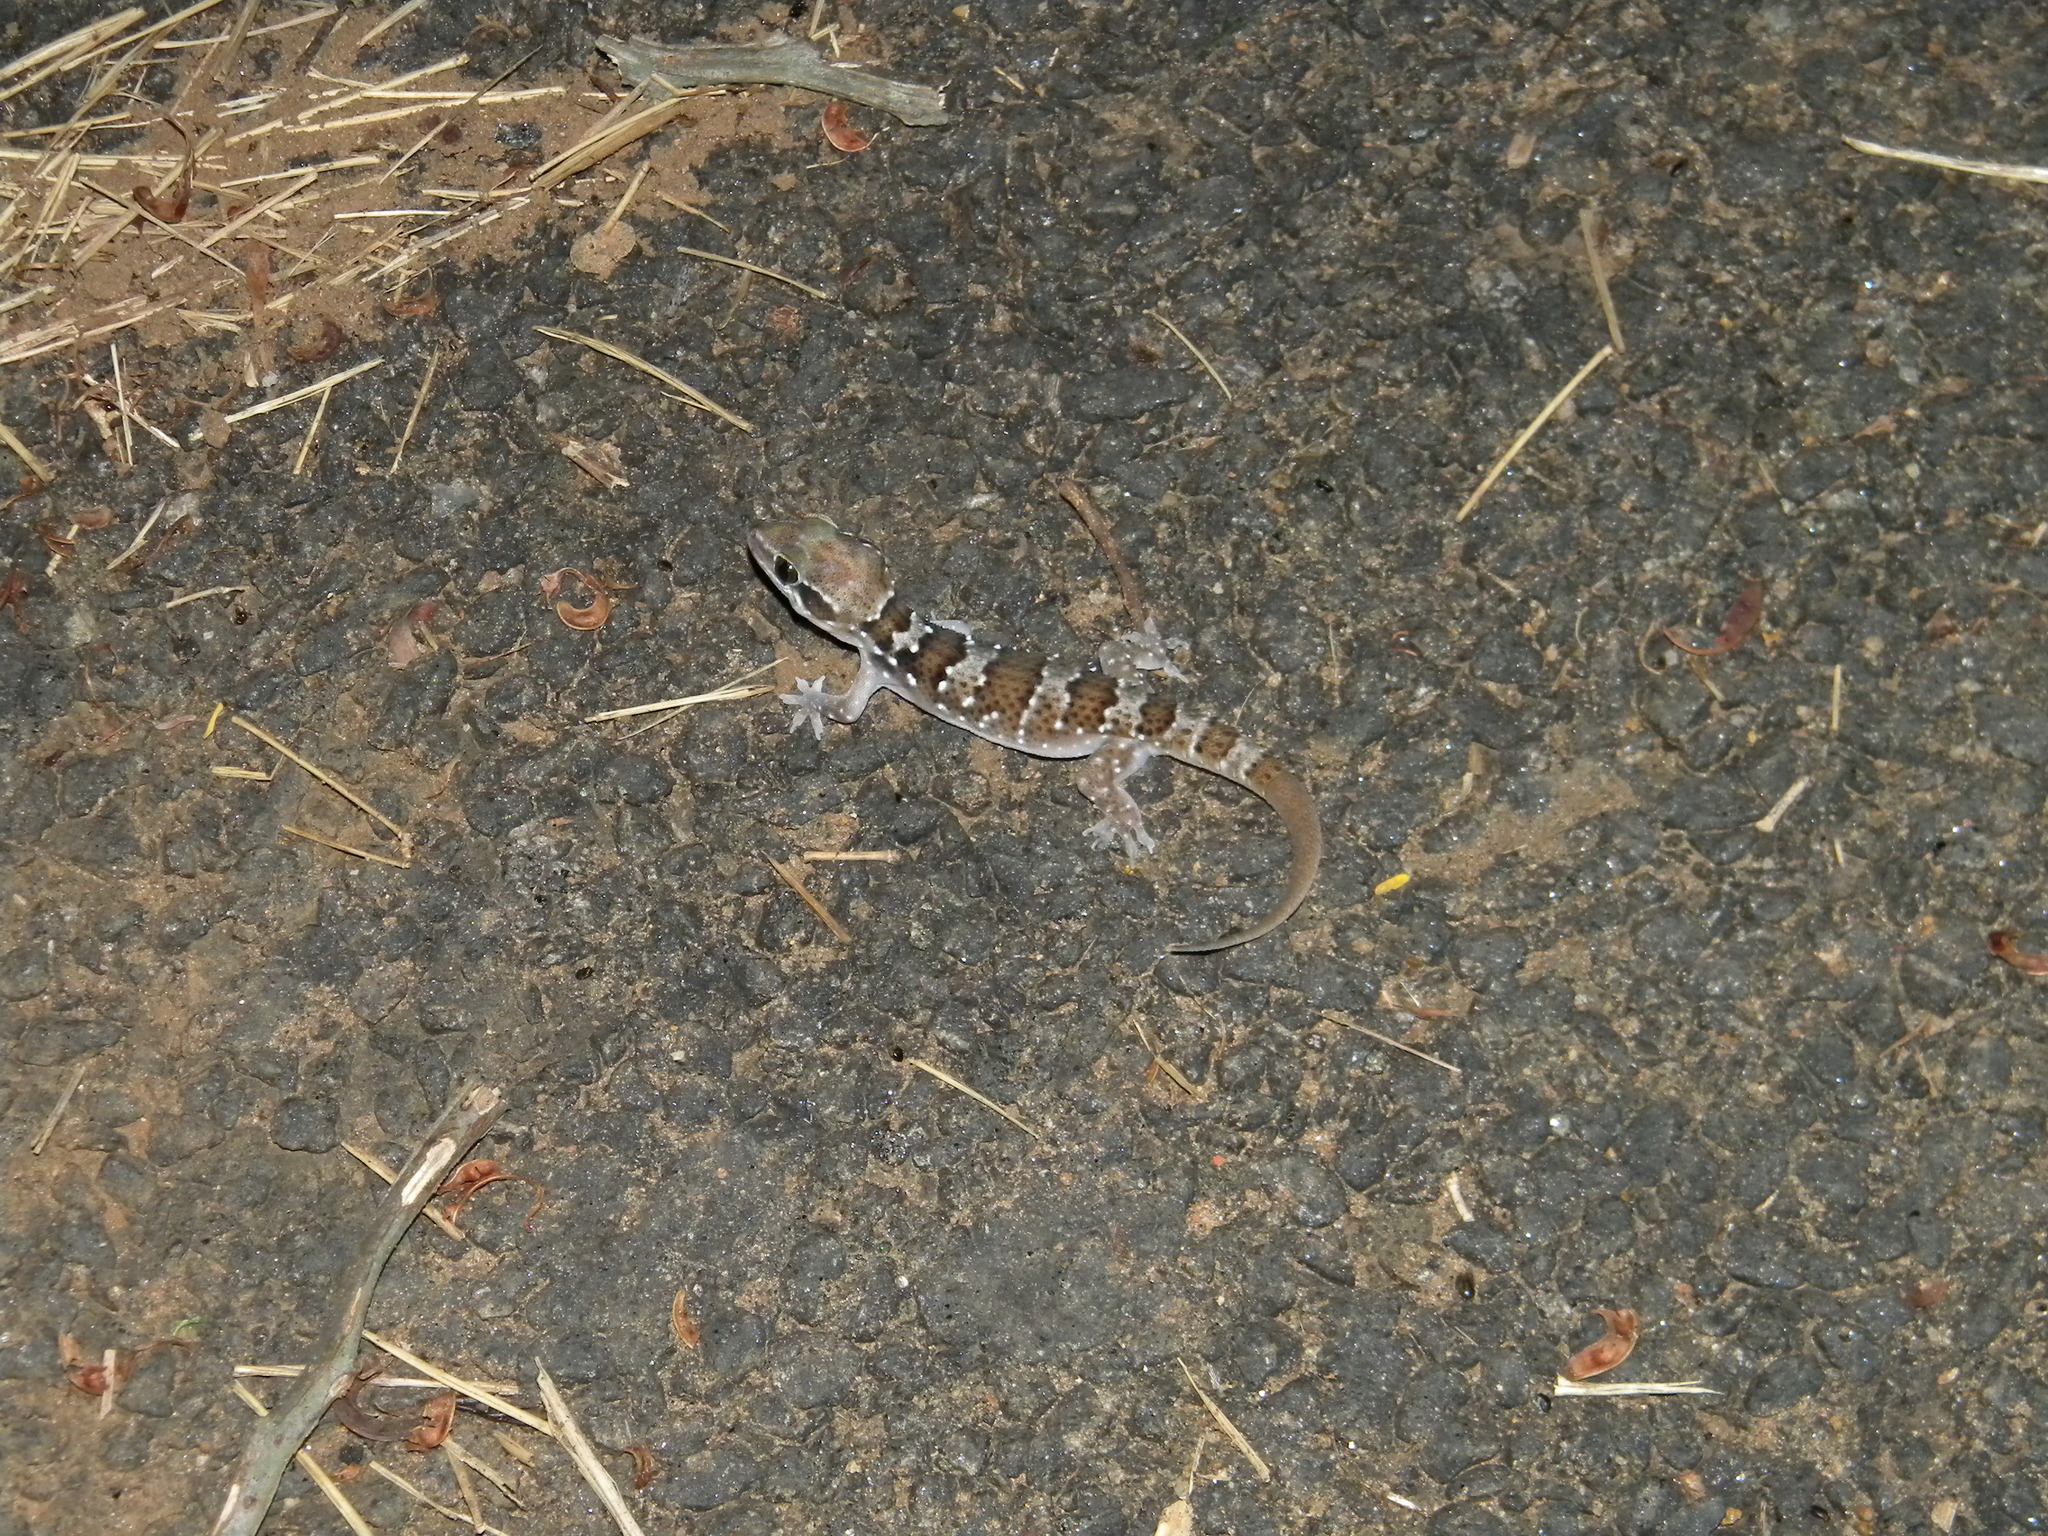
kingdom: Animalia
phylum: Chordata
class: Squamata
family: Gekkonidae
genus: Hemidactylus
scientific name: Hemidactylus triedrus
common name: Blotched house gecko
